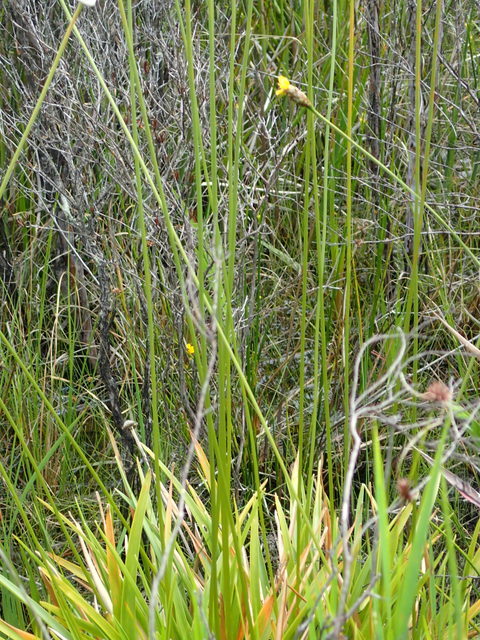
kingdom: Plantae
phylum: Tracheophyta
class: Liliopsida
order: Poales
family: Eriocaulaceae
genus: Eriocaulon
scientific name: Eriocaulon decangulare
